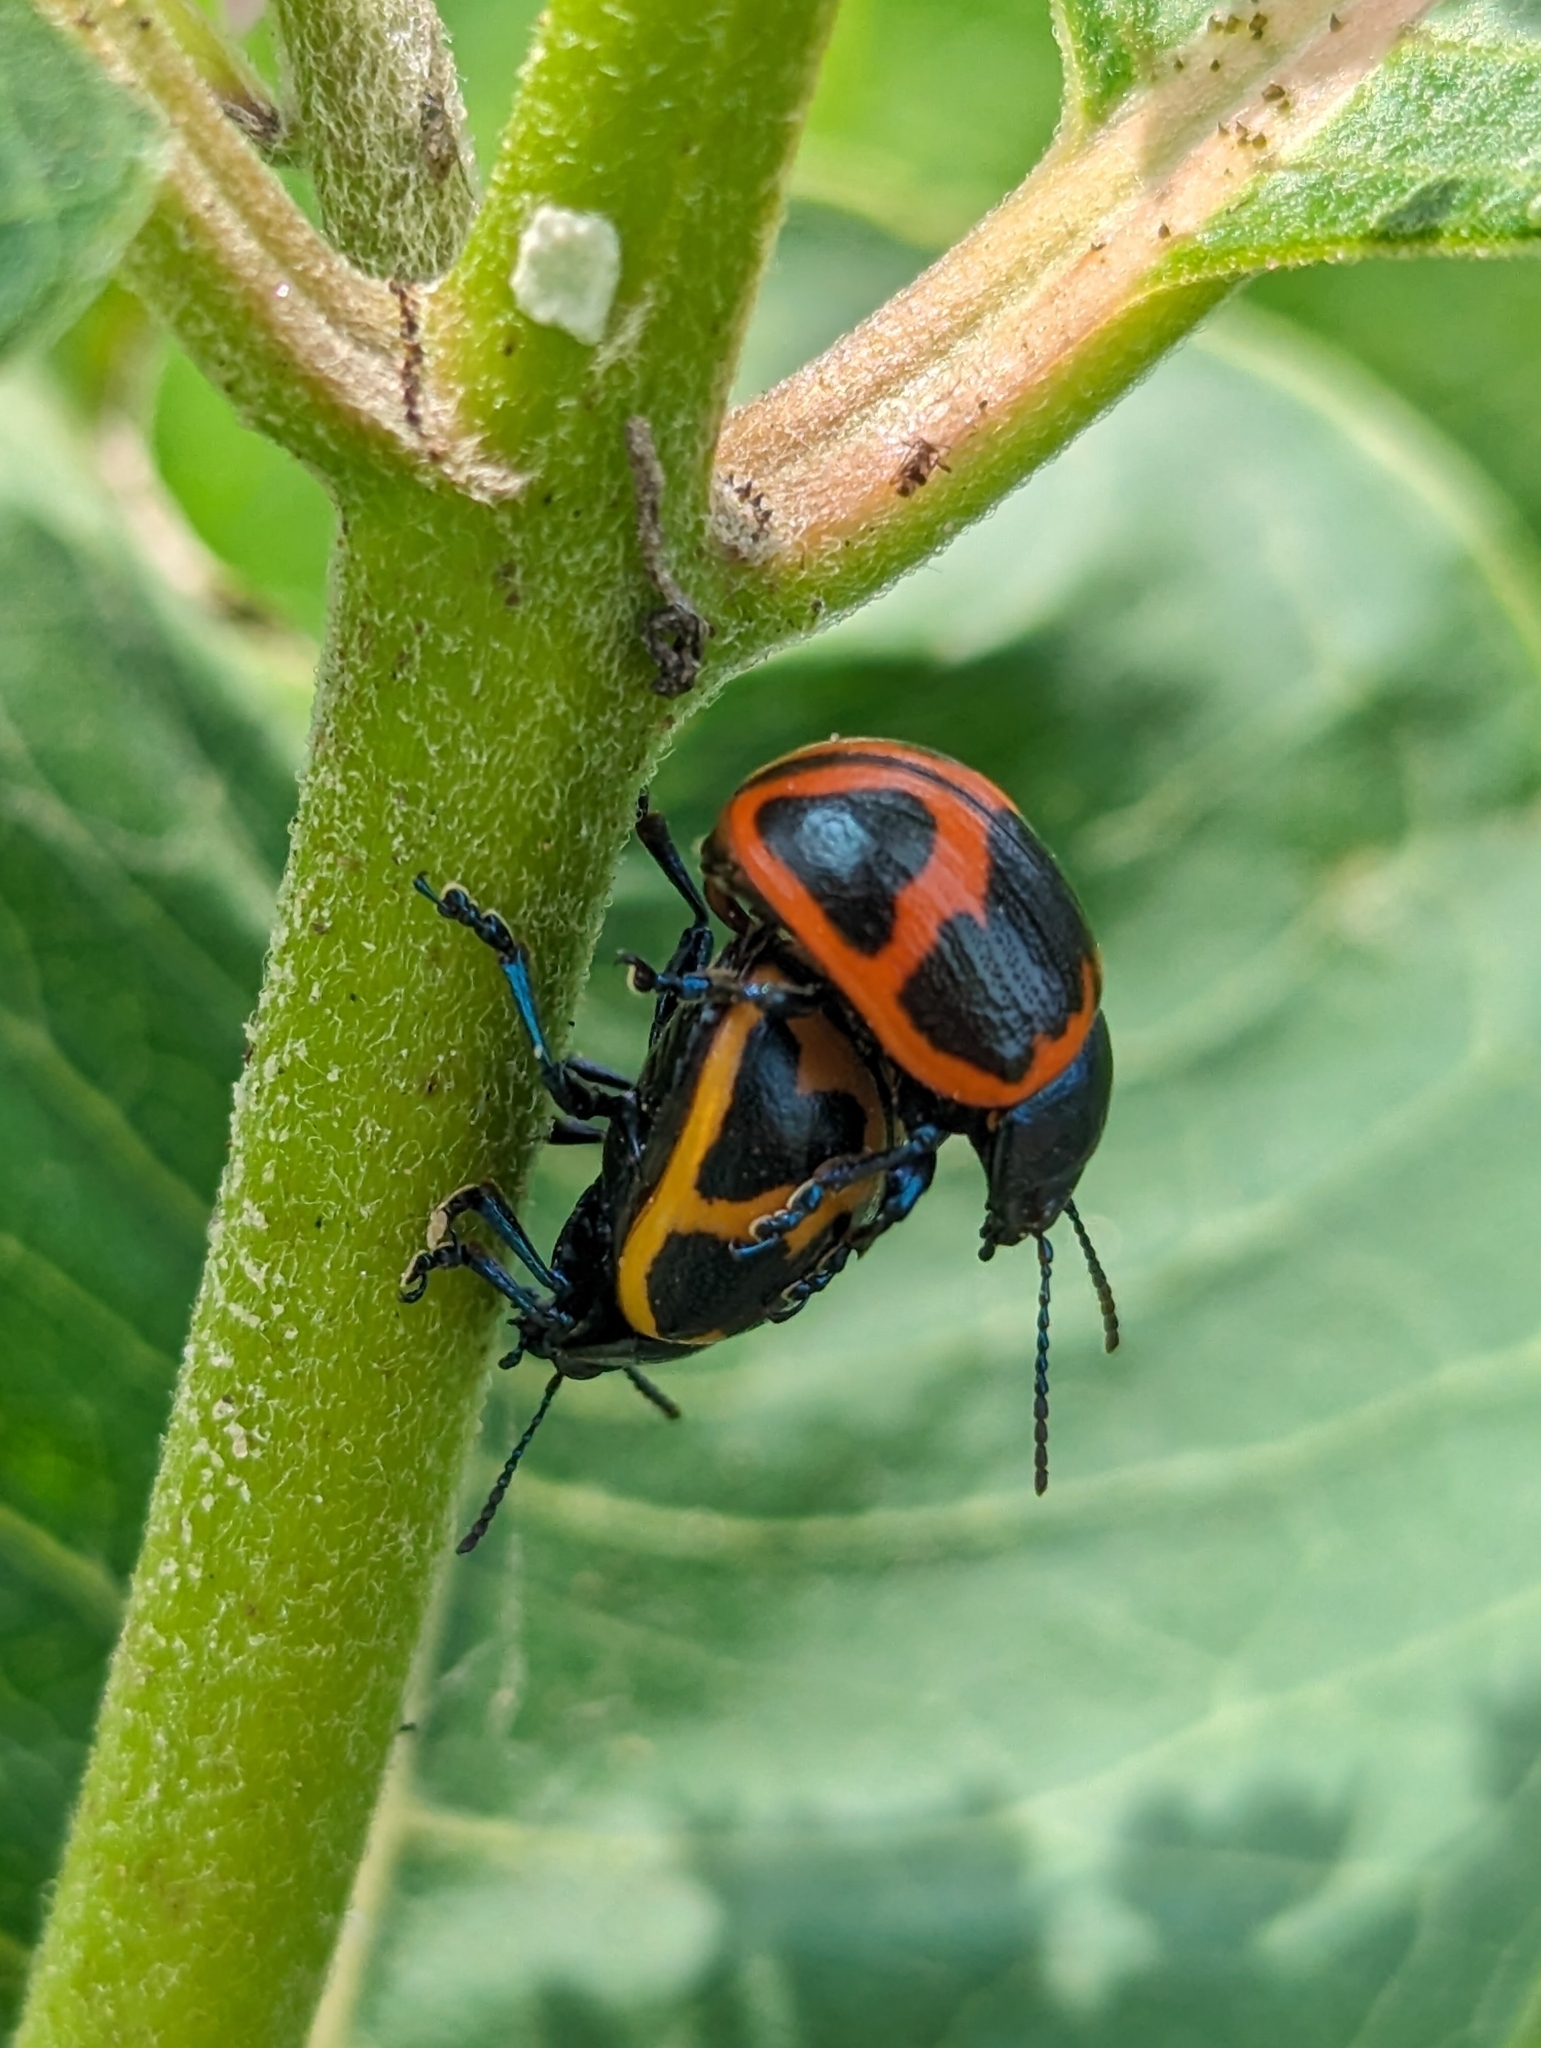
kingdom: Animalia
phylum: Arthropoda
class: Insecta
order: Coleoptera
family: Chrysomelidae
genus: Labidomera
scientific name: Labidomera clivicollis
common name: Swamp milkweed leaf beetle
